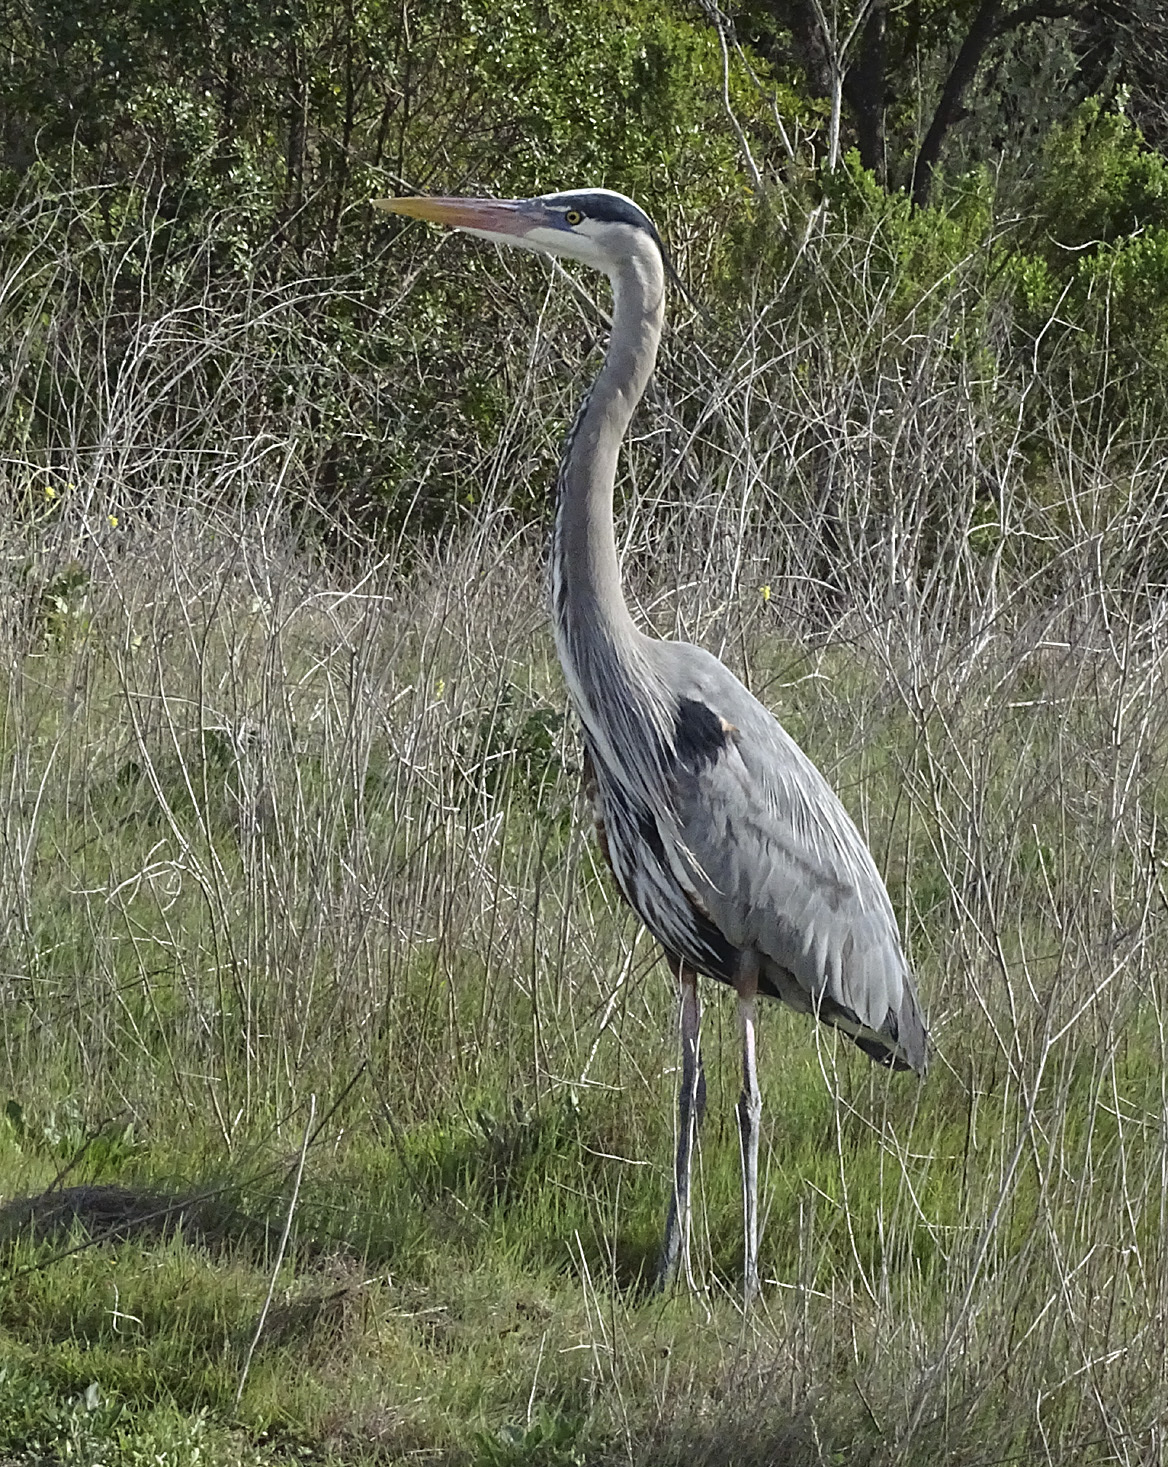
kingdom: Animalia
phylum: Chordata
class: Aves
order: Pelecaniformes
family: Ardeidae
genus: Ardea
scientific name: Ardea herodias
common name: Great blue heron
